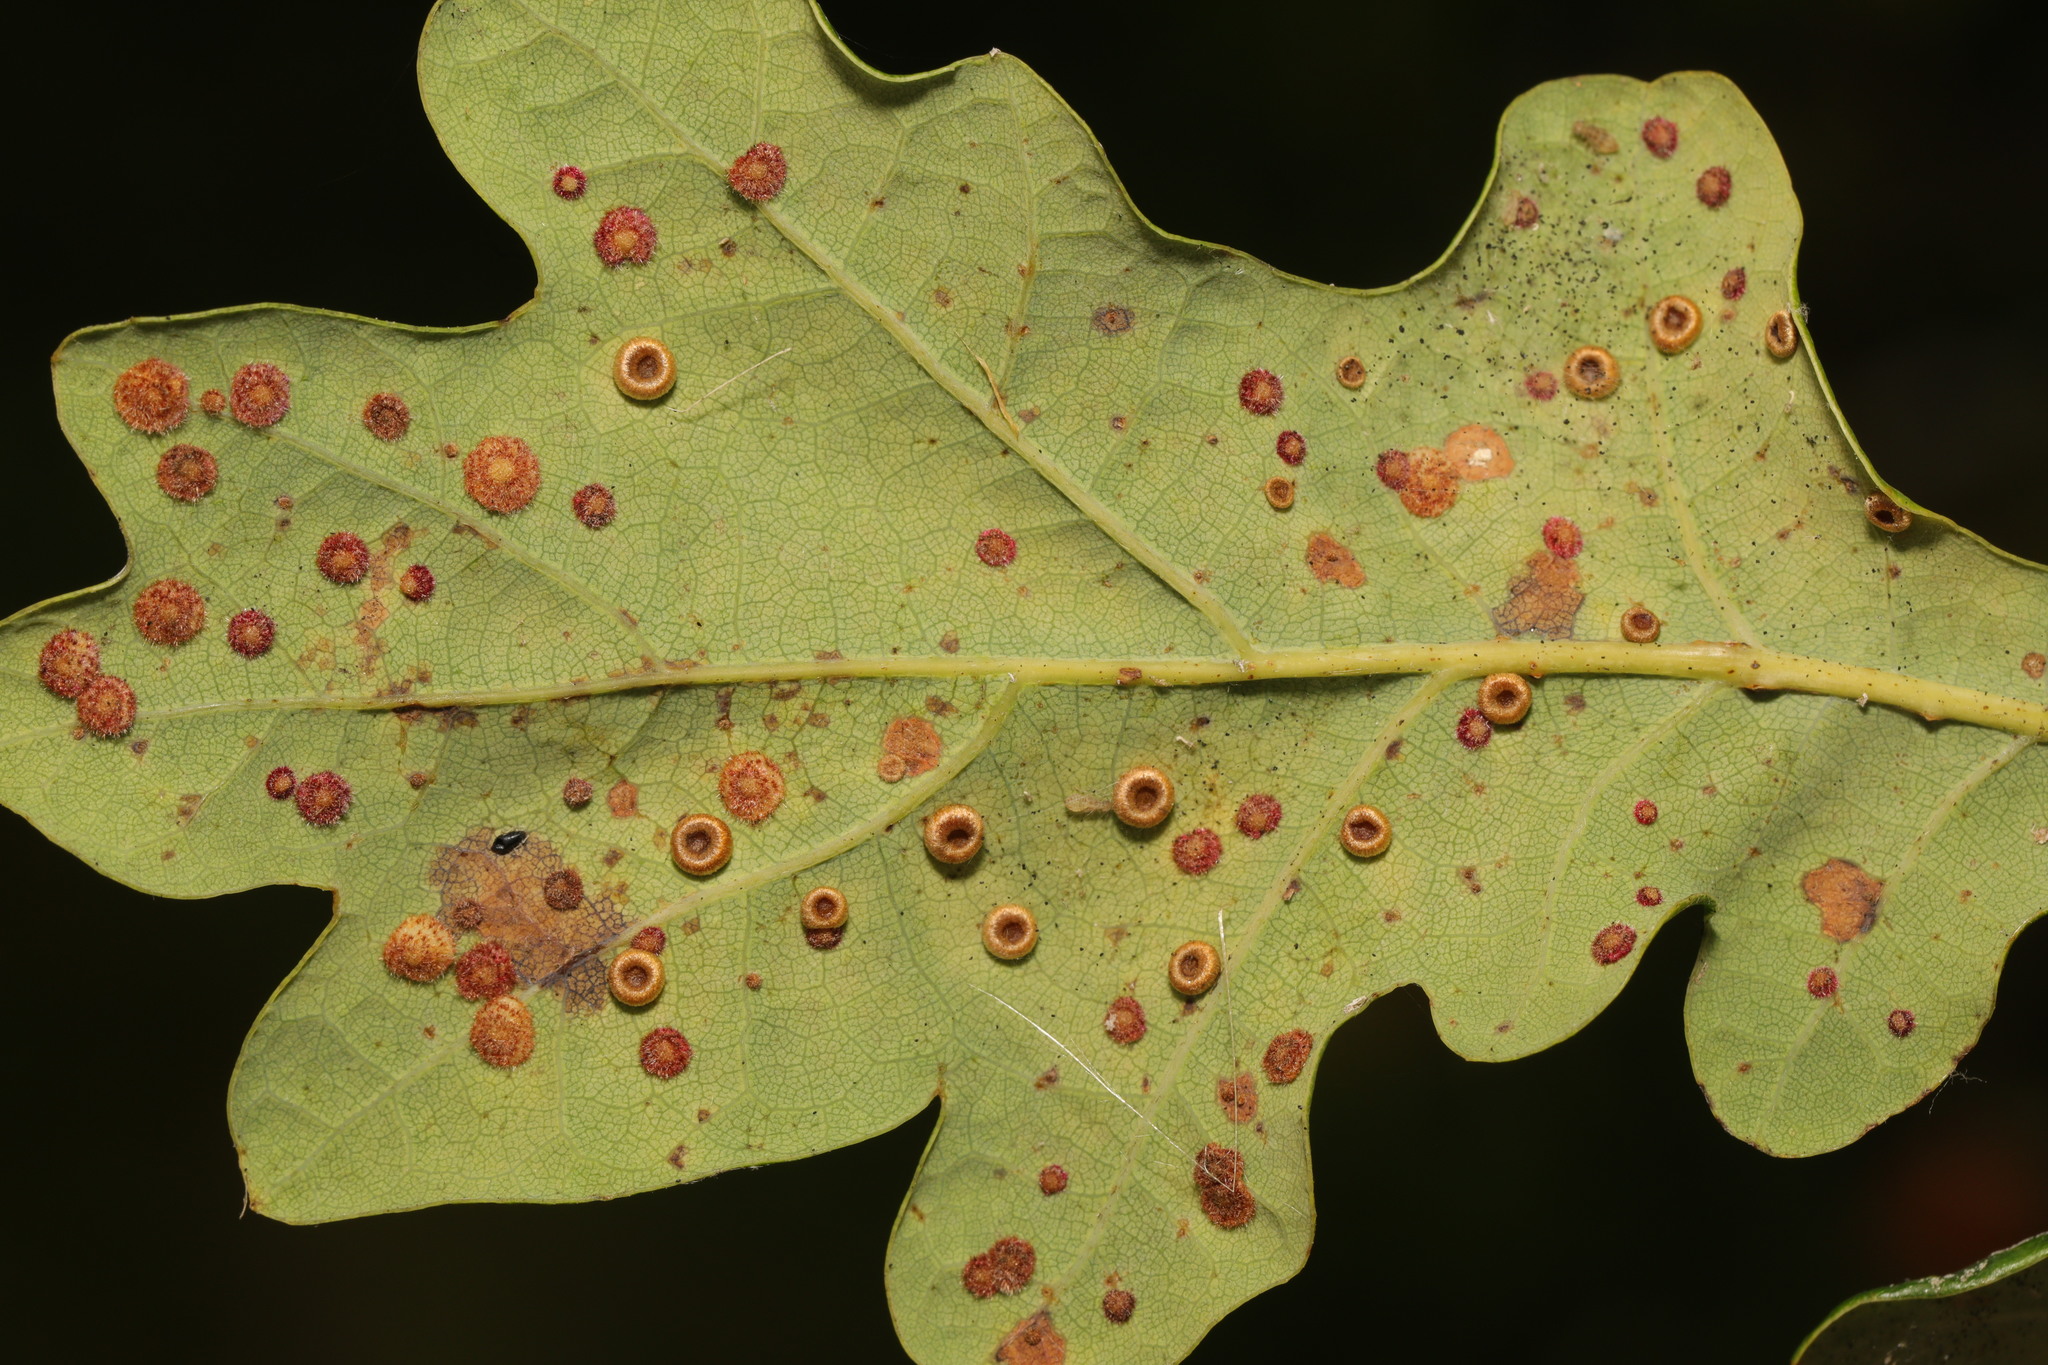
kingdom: Animalia
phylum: Arthropoda
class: Insecta
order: Hymenoptera
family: Cynipidae
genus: Neuroterus
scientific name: Neuroterus numismalis
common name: Silk-button spangle gall
